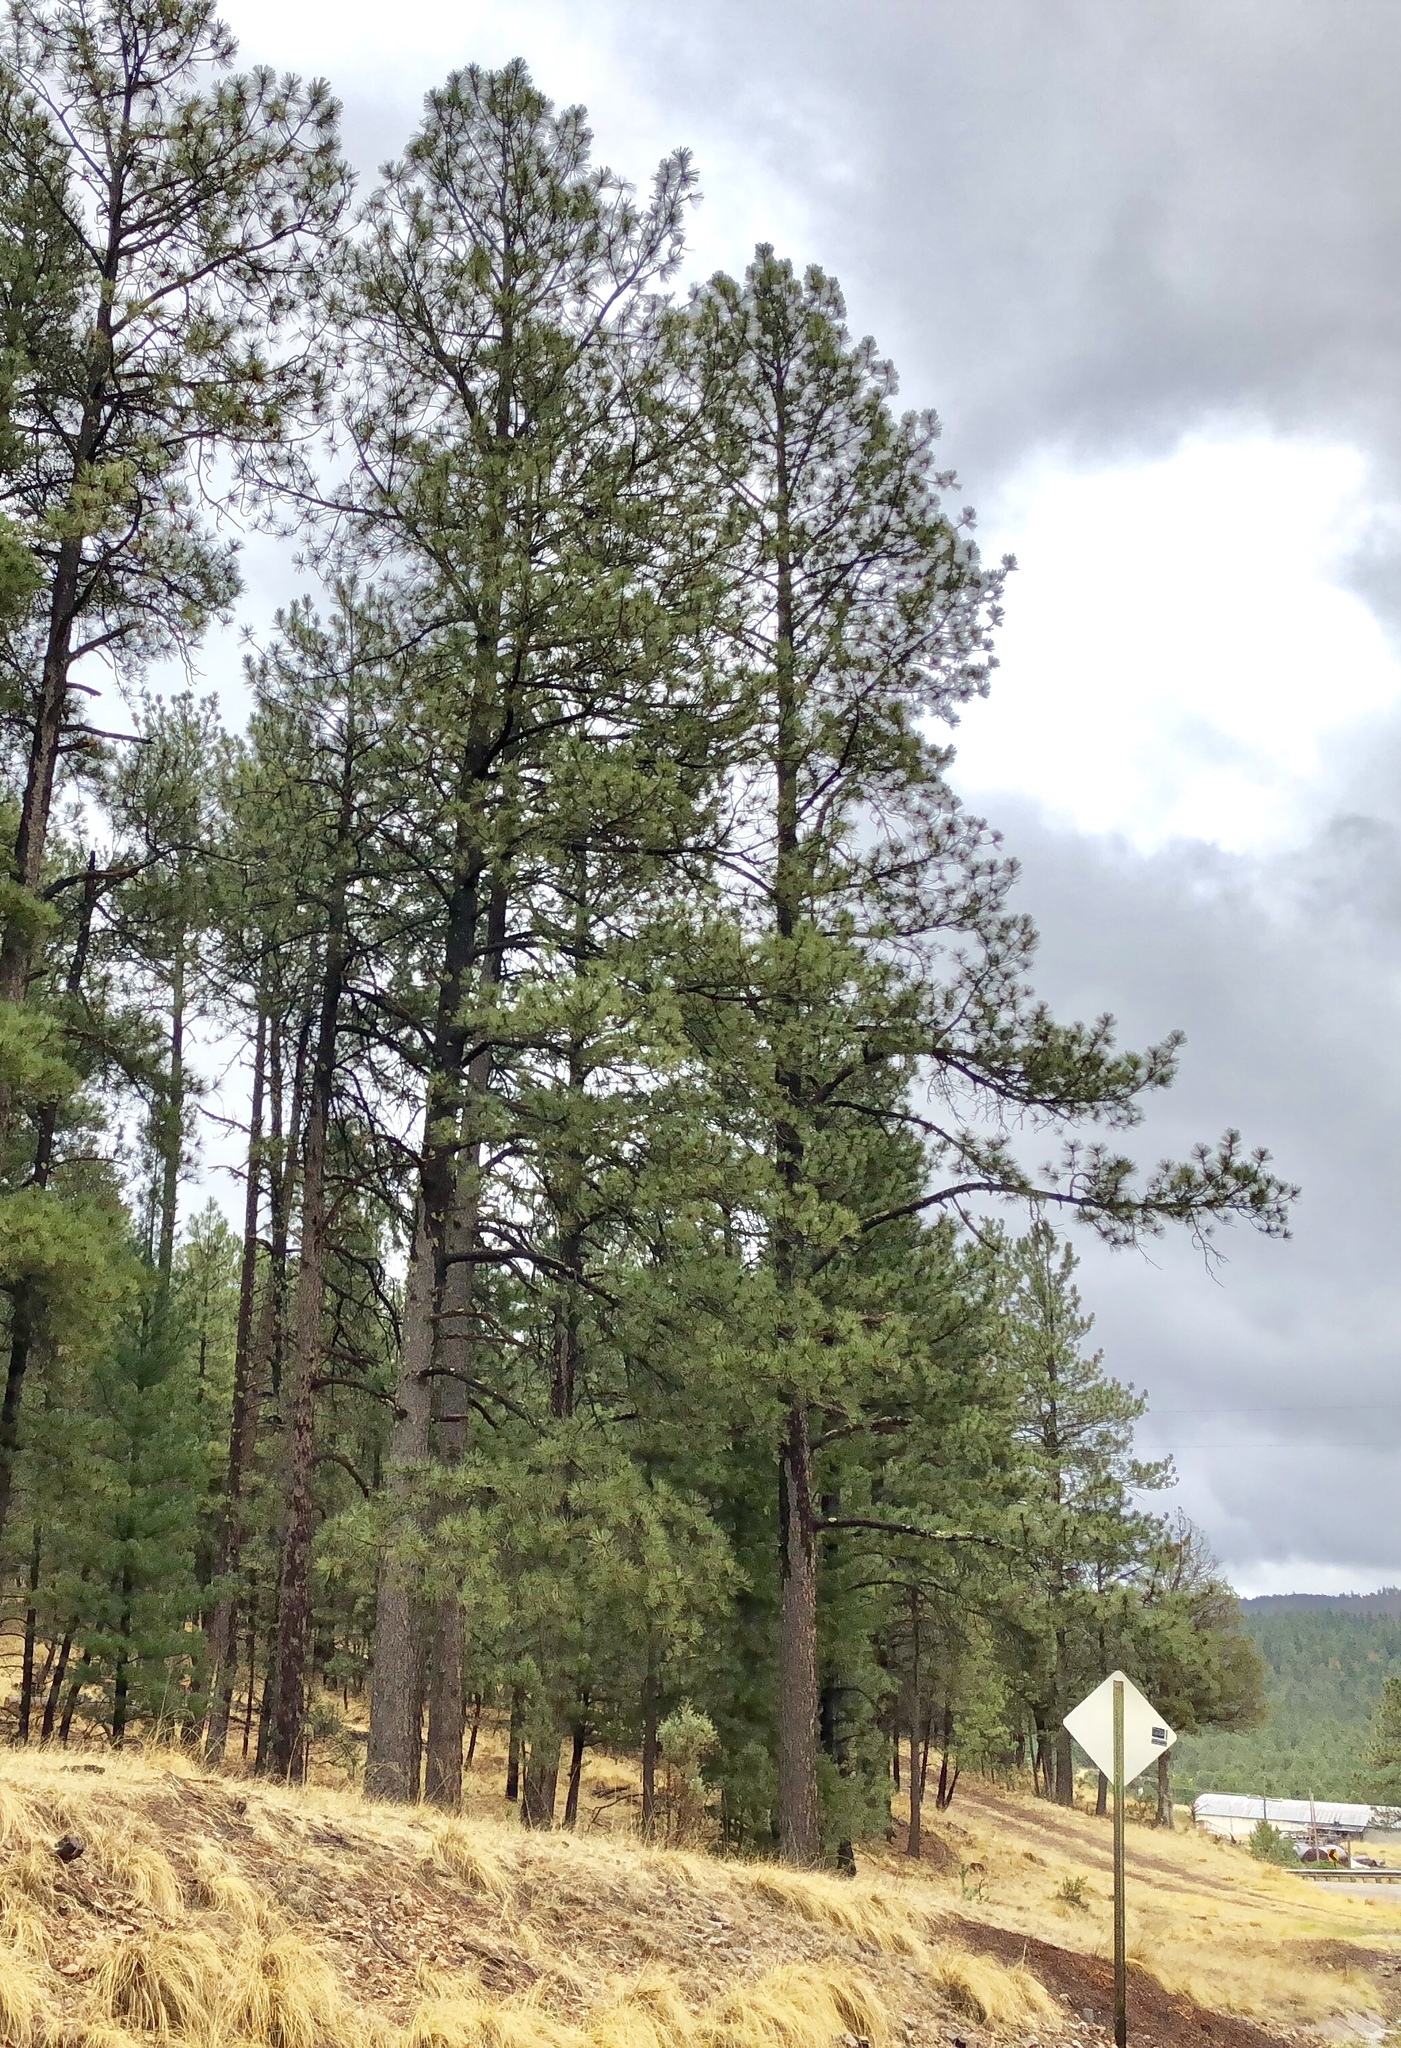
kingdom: Plantae
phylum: Tracheophyta
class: Pinopsida
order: Pinales
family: Pinaceae
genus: Pinus
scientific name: Pinus ponderosa
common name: Western yellow-pine
